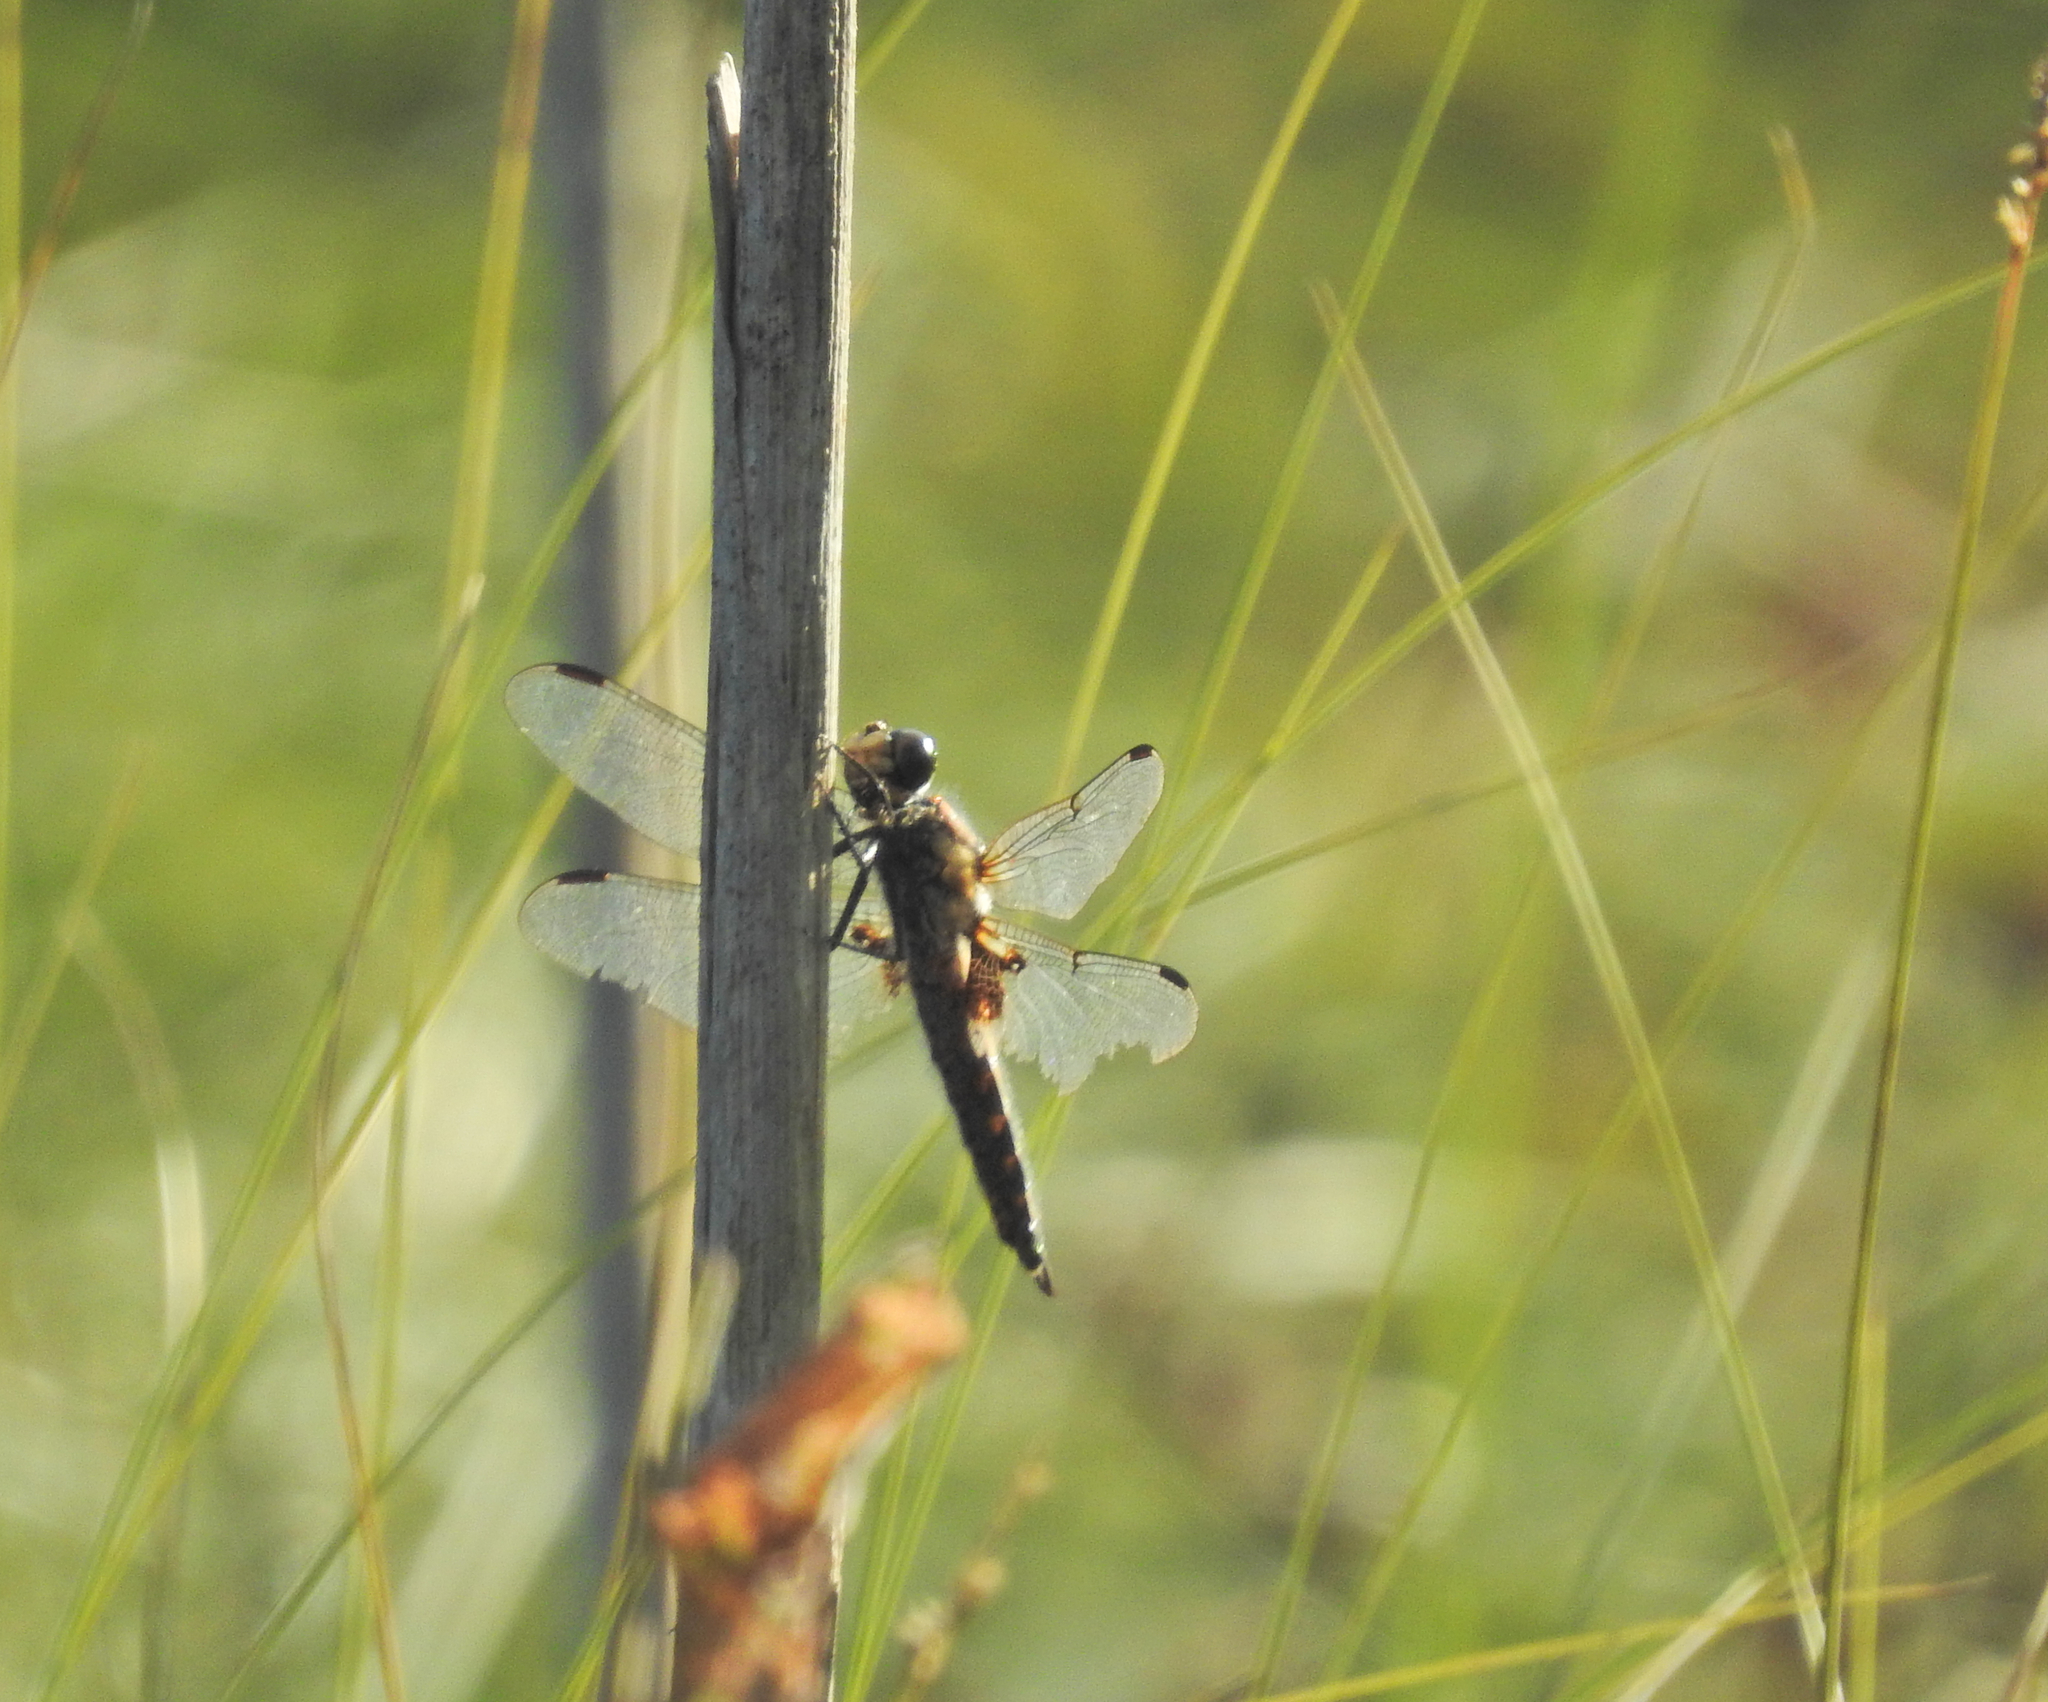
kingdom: Animalia
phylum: Arthropoda
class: Insecta
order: Odonata
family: Libellulidae
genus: Libellula
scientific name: Libellula quadrimaculata
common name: Four-spotted chaser
